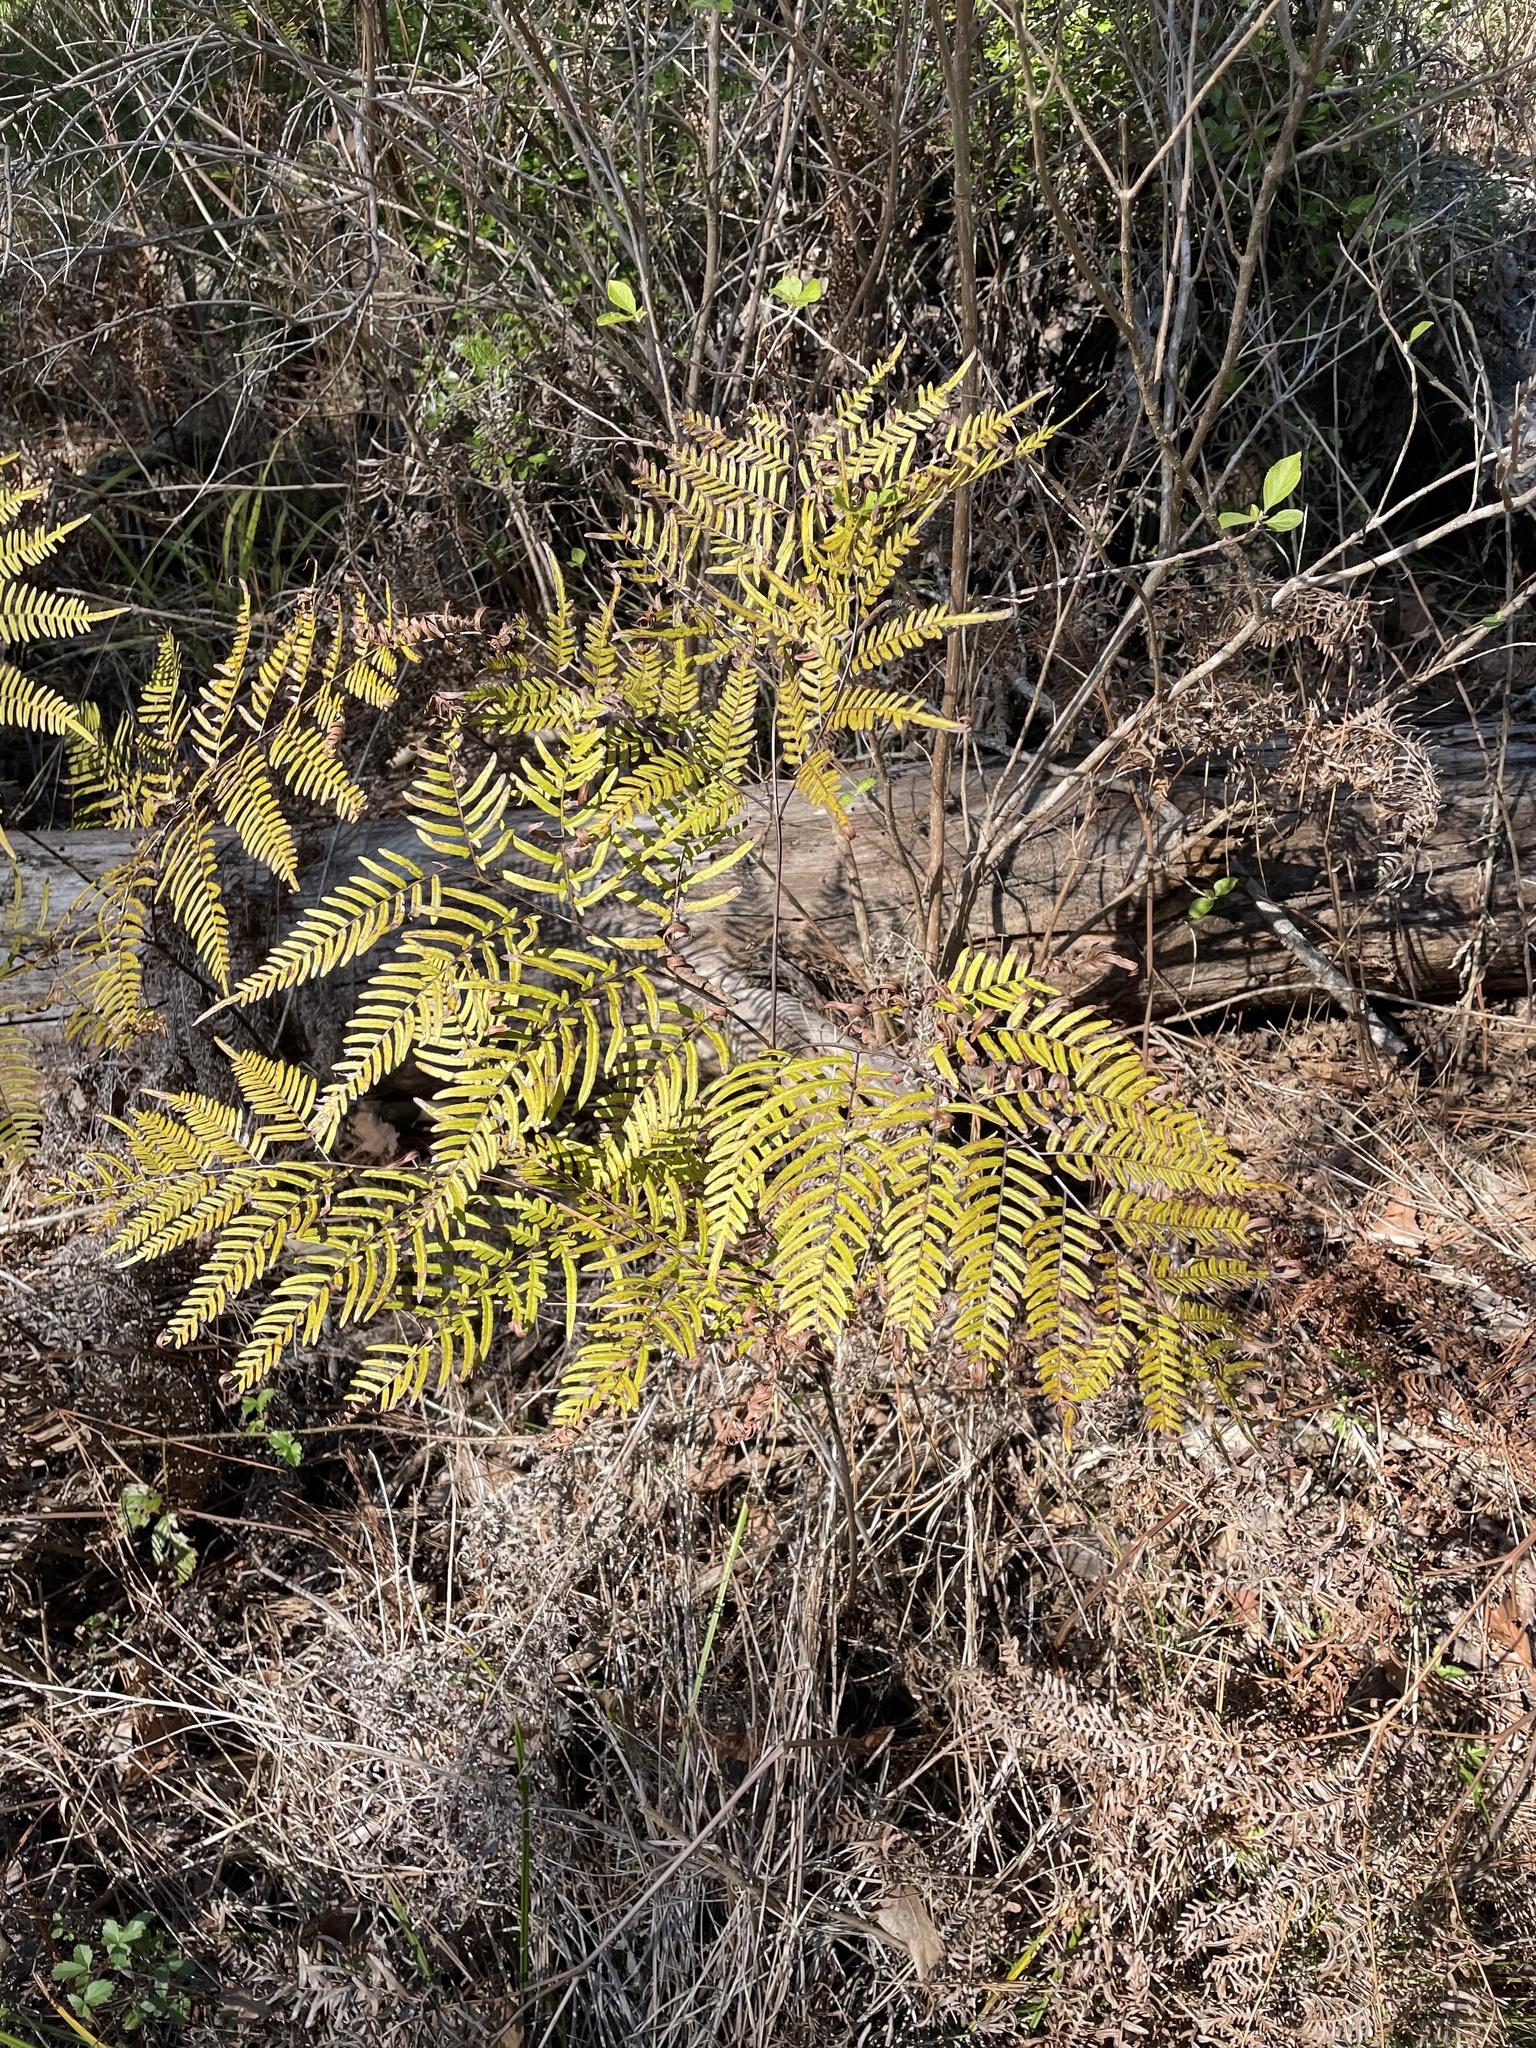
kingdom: Plantae
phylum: Tracheophyta
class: Polypodiopsida
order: Polypodiales
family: Dennstaedtiaceae
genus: Pteridium
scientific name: Pteridium aquilinum
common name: Bracken
